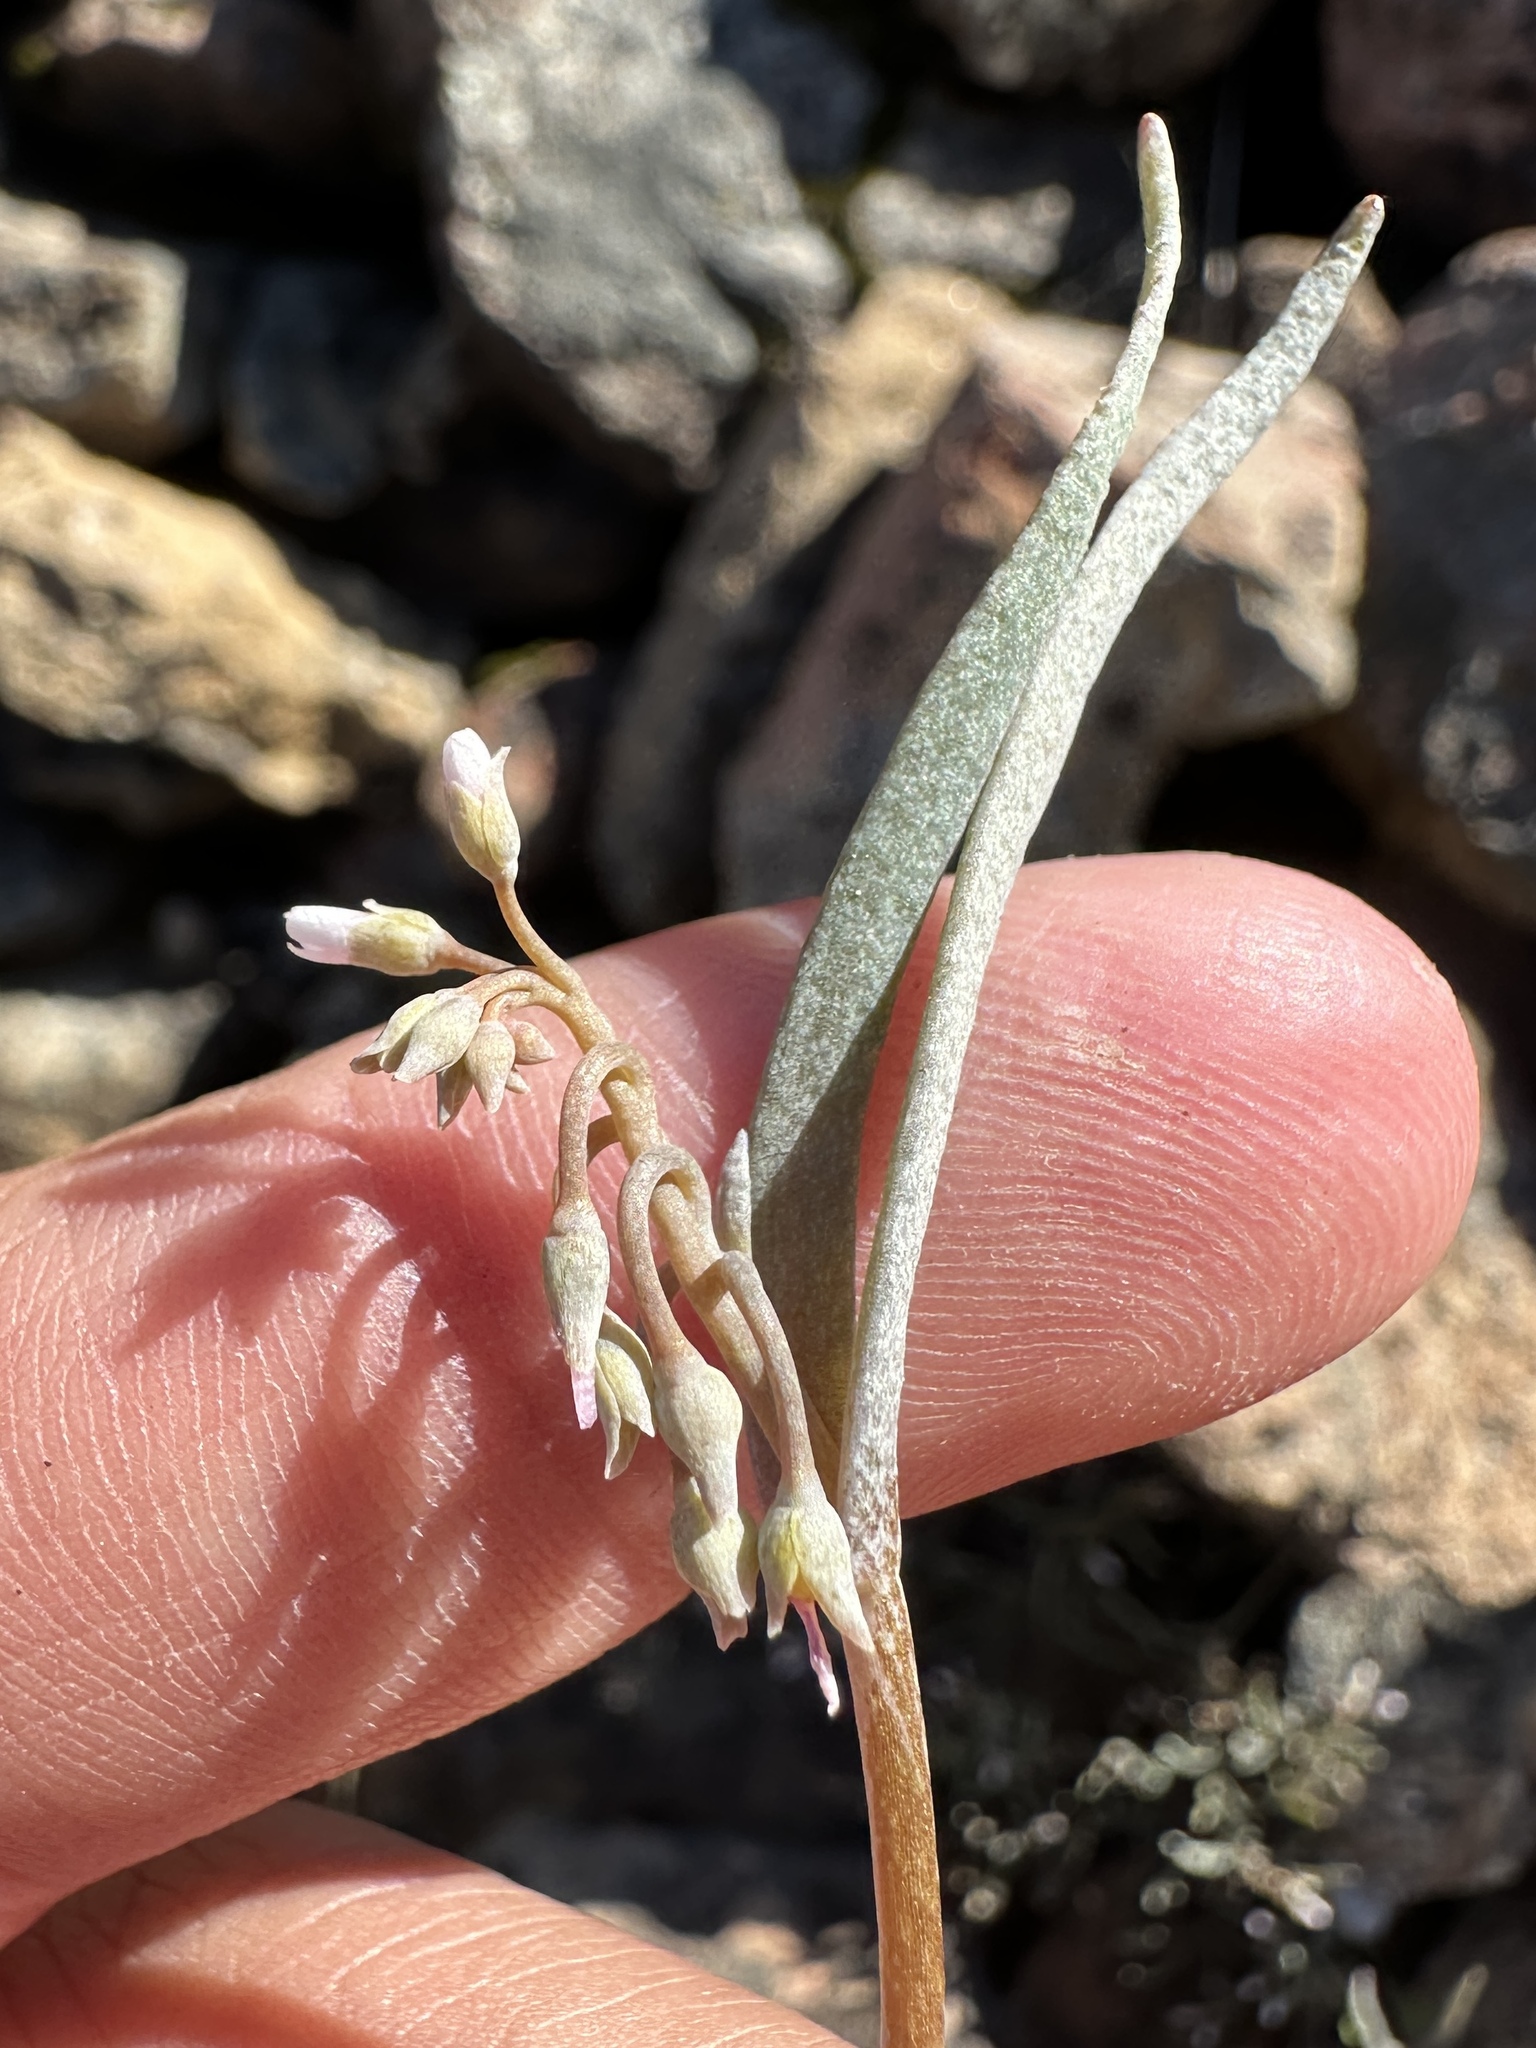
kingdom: Plantae
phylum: Tracheophyta
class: Magnoliopsida
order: Caryophyllales
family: Montiaceae
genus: Claytonia
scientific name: Claytonia exigua
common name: Pale spring beauty
